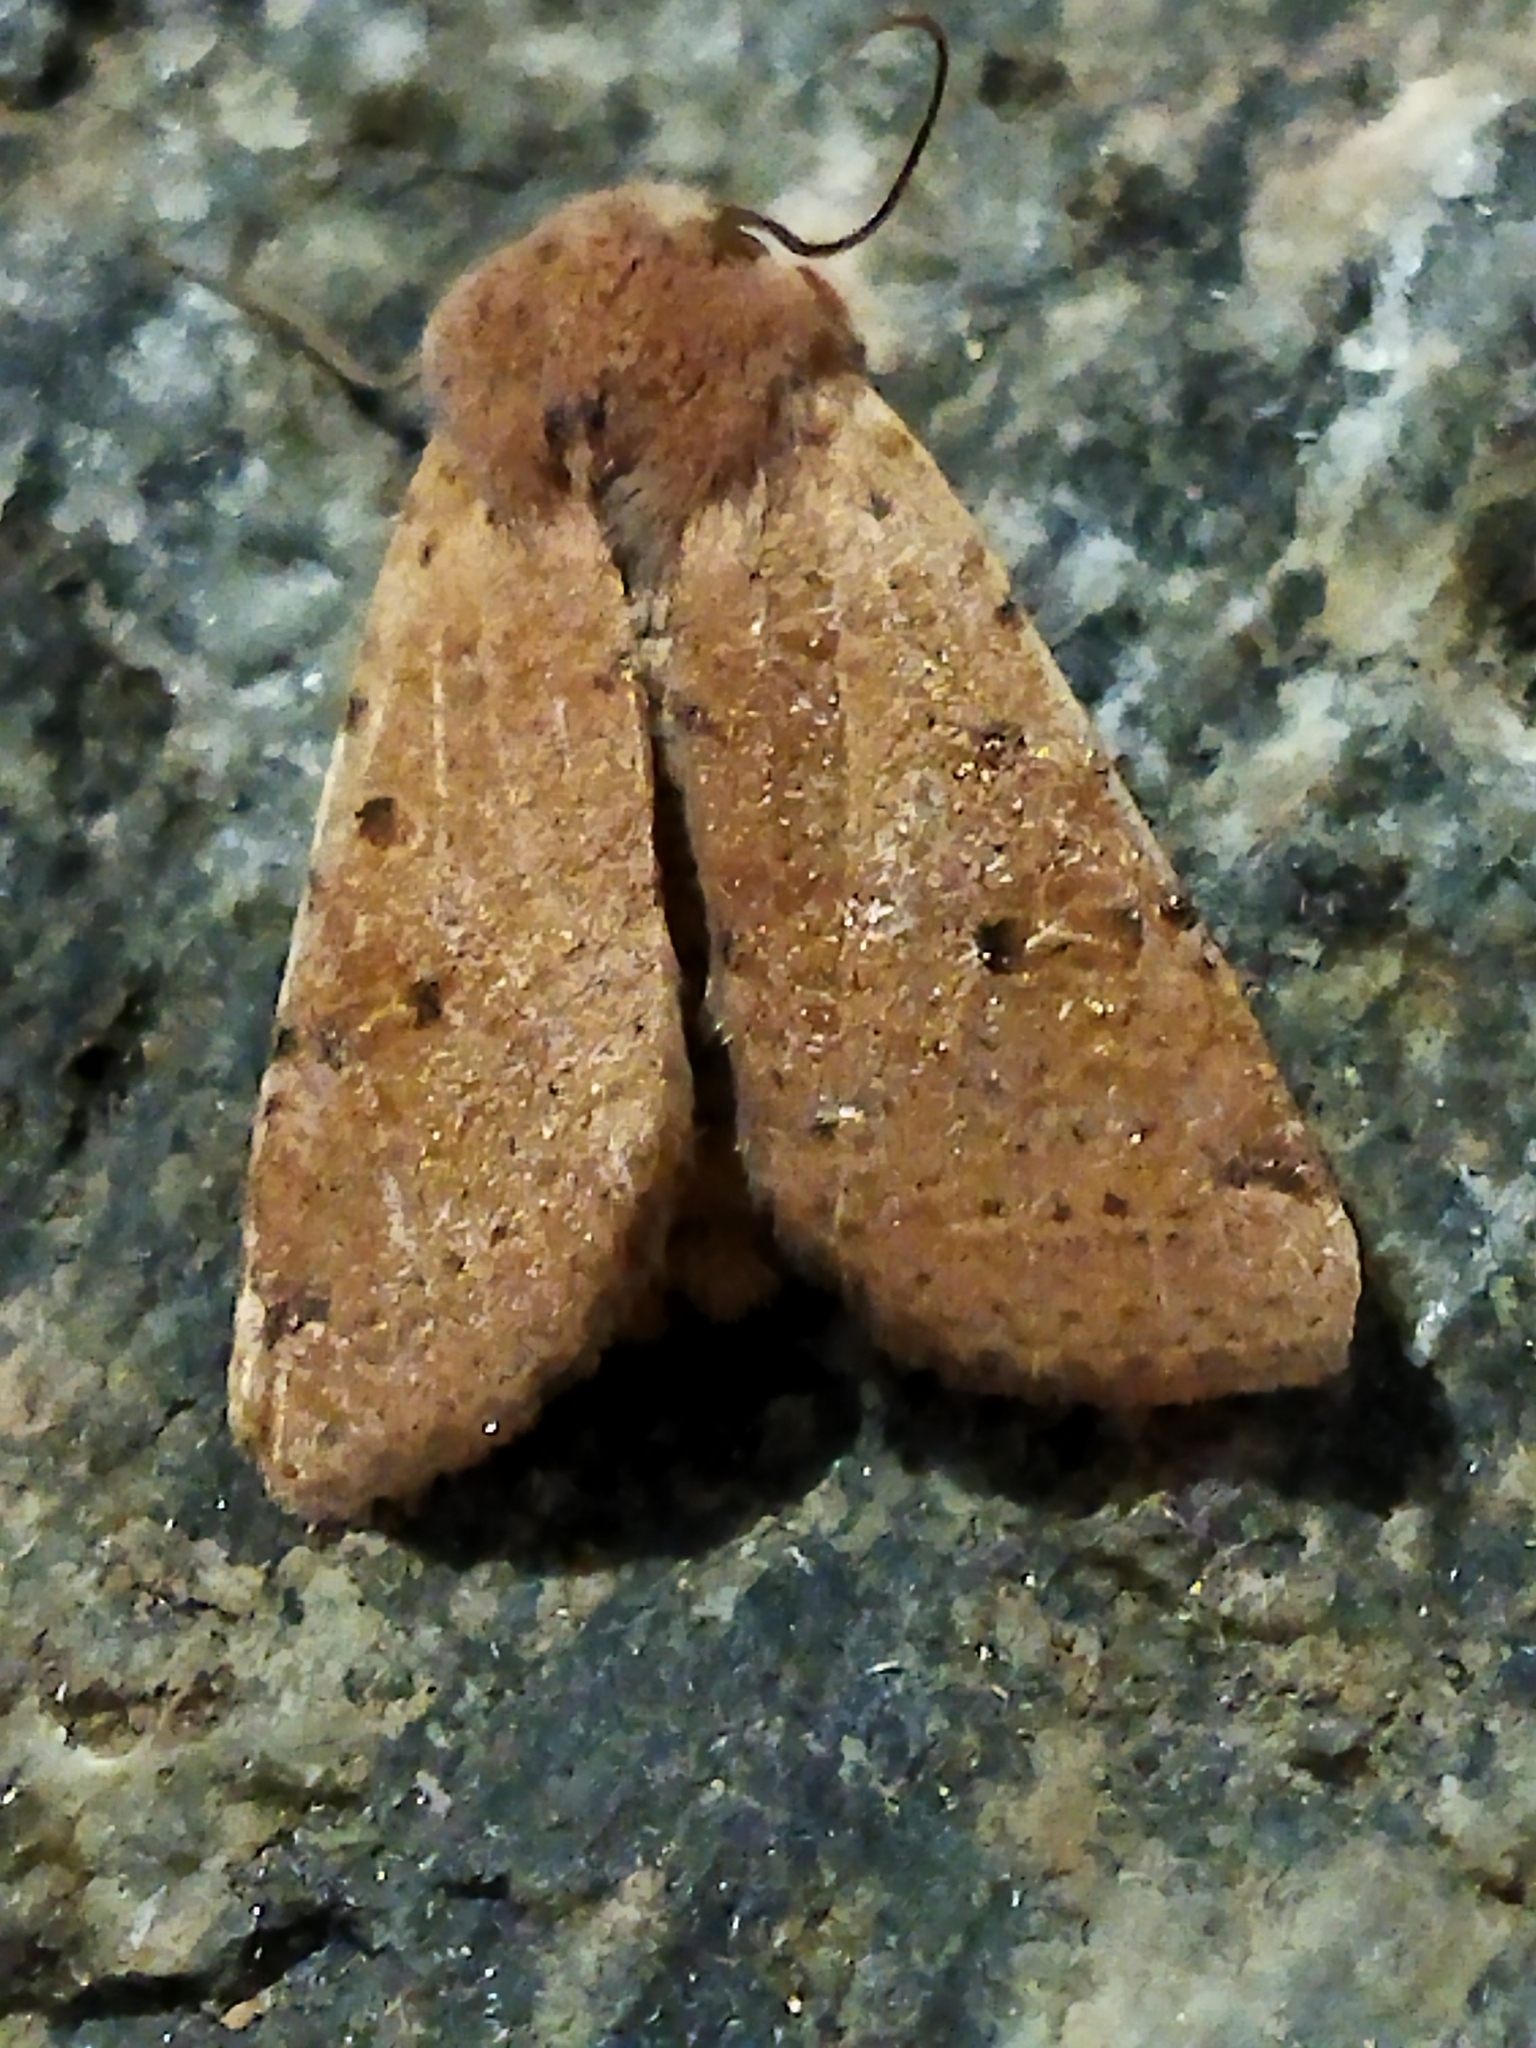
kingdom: Animalia
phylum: Arthropoda
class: Insecta
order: Lepidoptera
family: Noctuidae
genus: Agrochola
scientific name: Agrochola lychnidis
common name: Beaded chestnut
